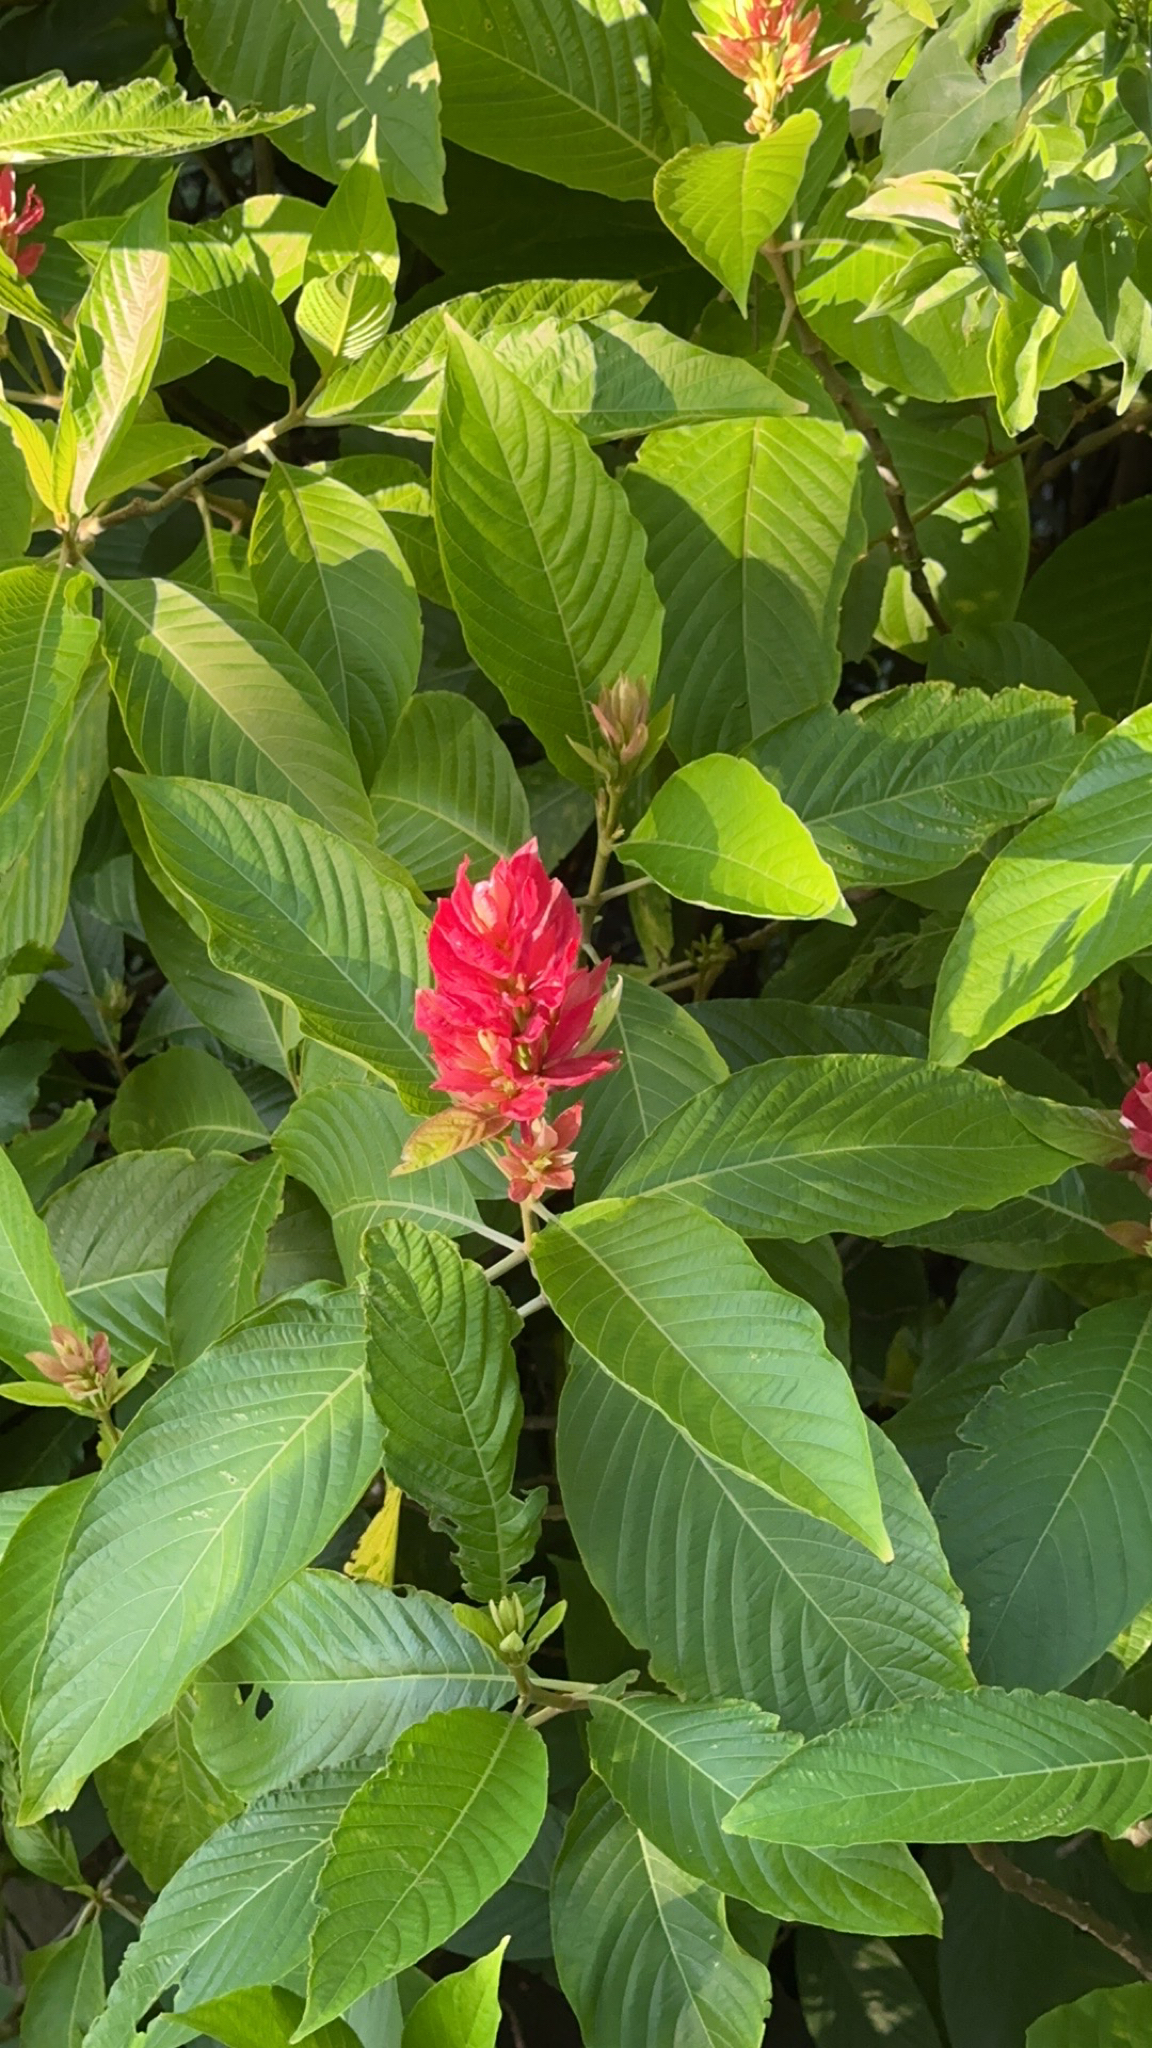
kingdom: Plantae
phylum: Tracheophyta
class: Magnoliopsida
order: Lamiales
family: Acanthaceae
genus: Megaskepasma
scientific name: Megaskepasma erythrochlamys
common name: Brazilian red-cloak
